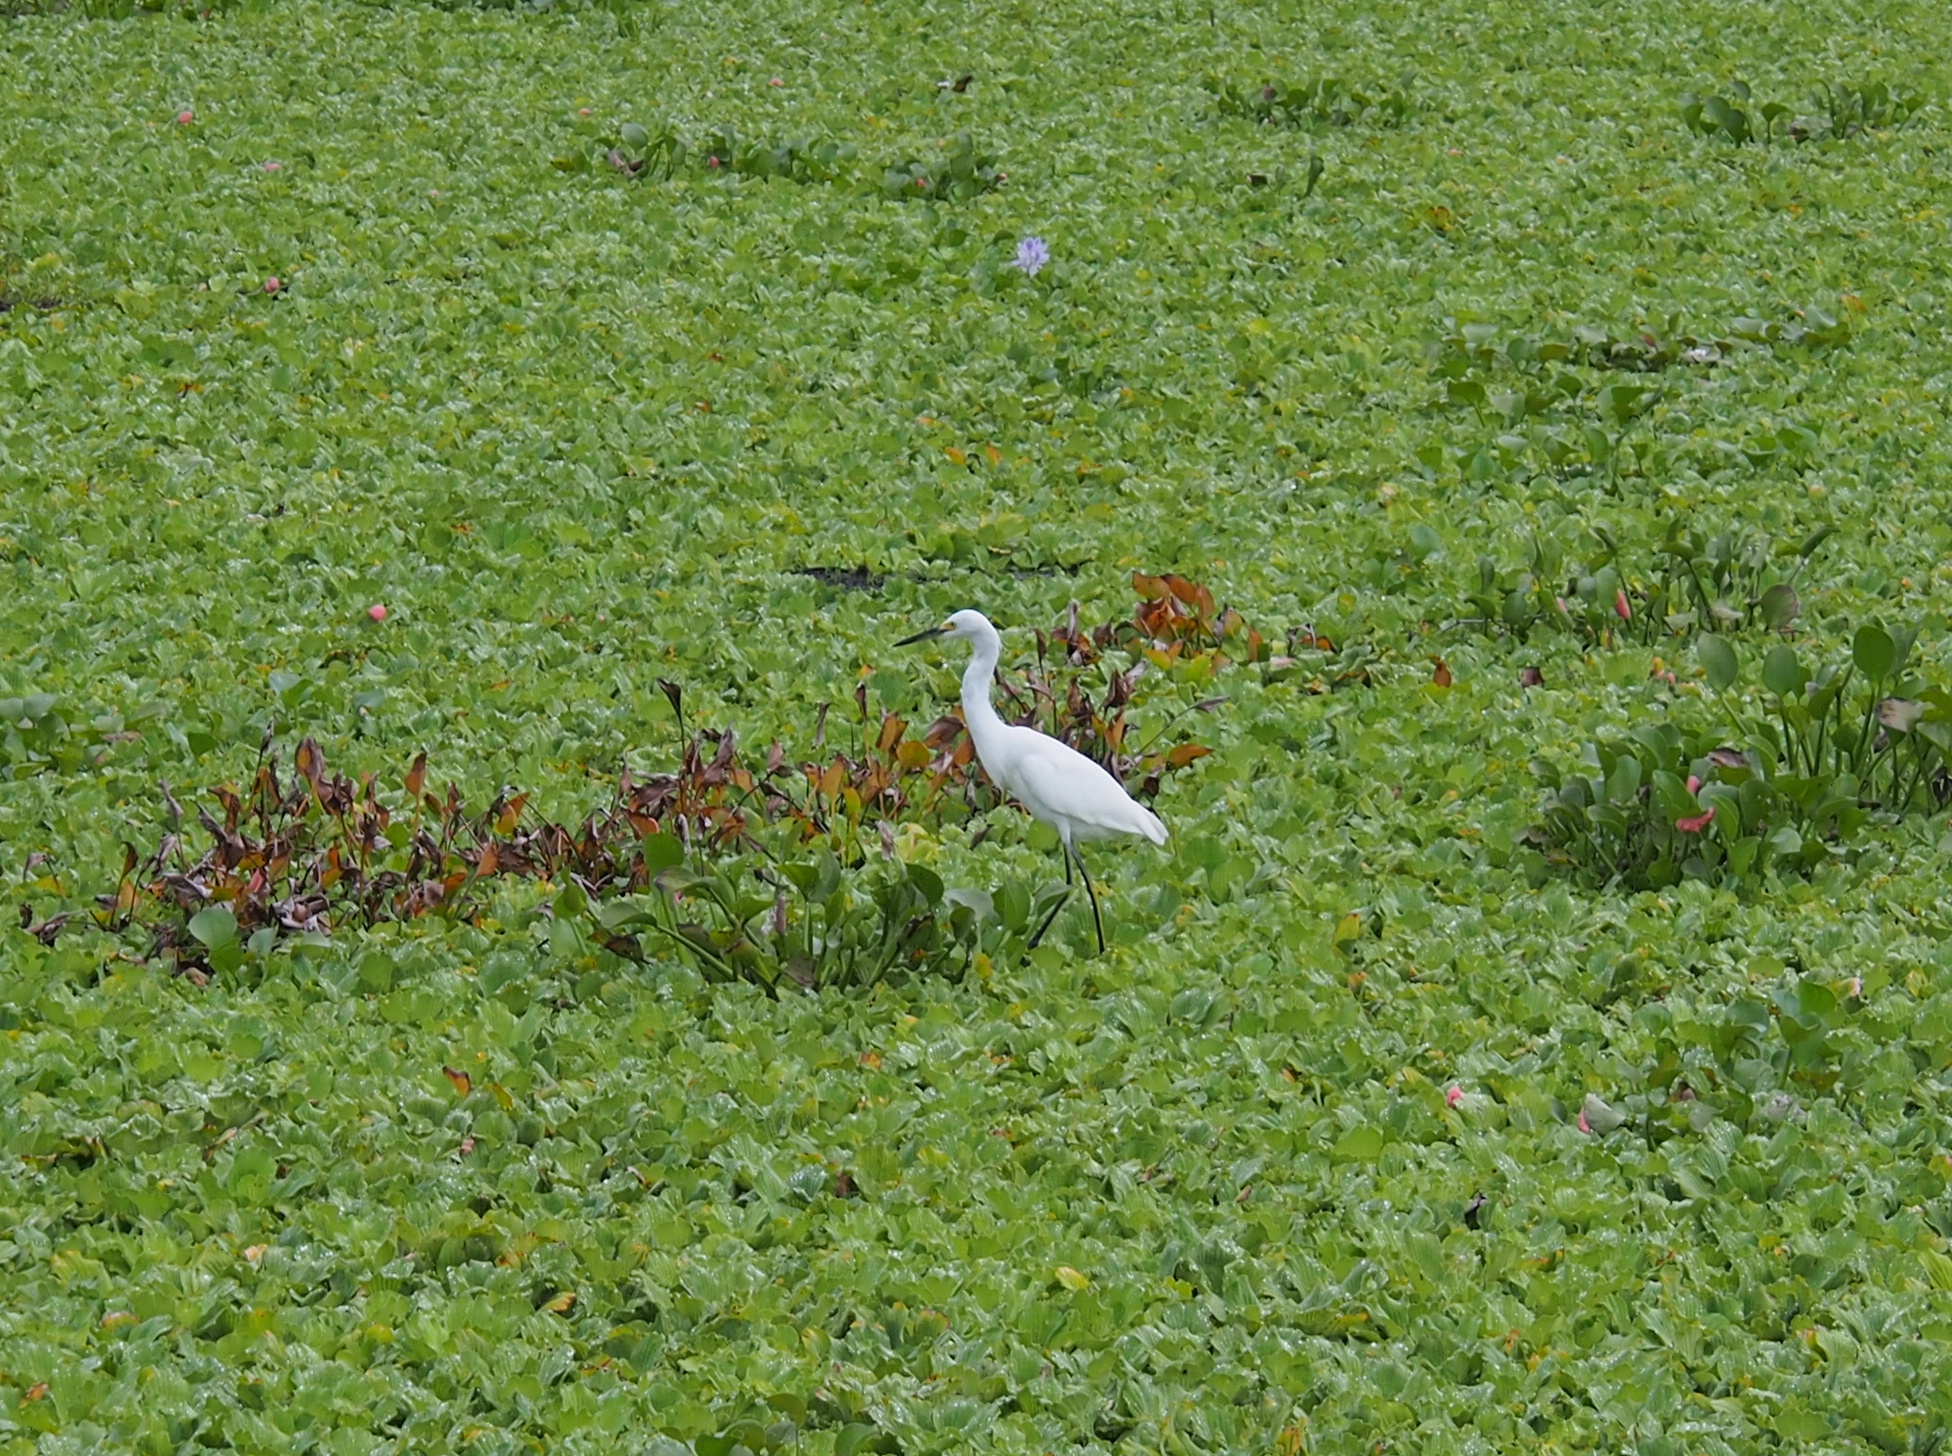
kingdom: Animalia
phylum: Chordata
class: Aves
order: Pelecaniformes
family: Ardeidae
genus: Egretta
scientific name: Egretta thula
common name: Snowy egret
